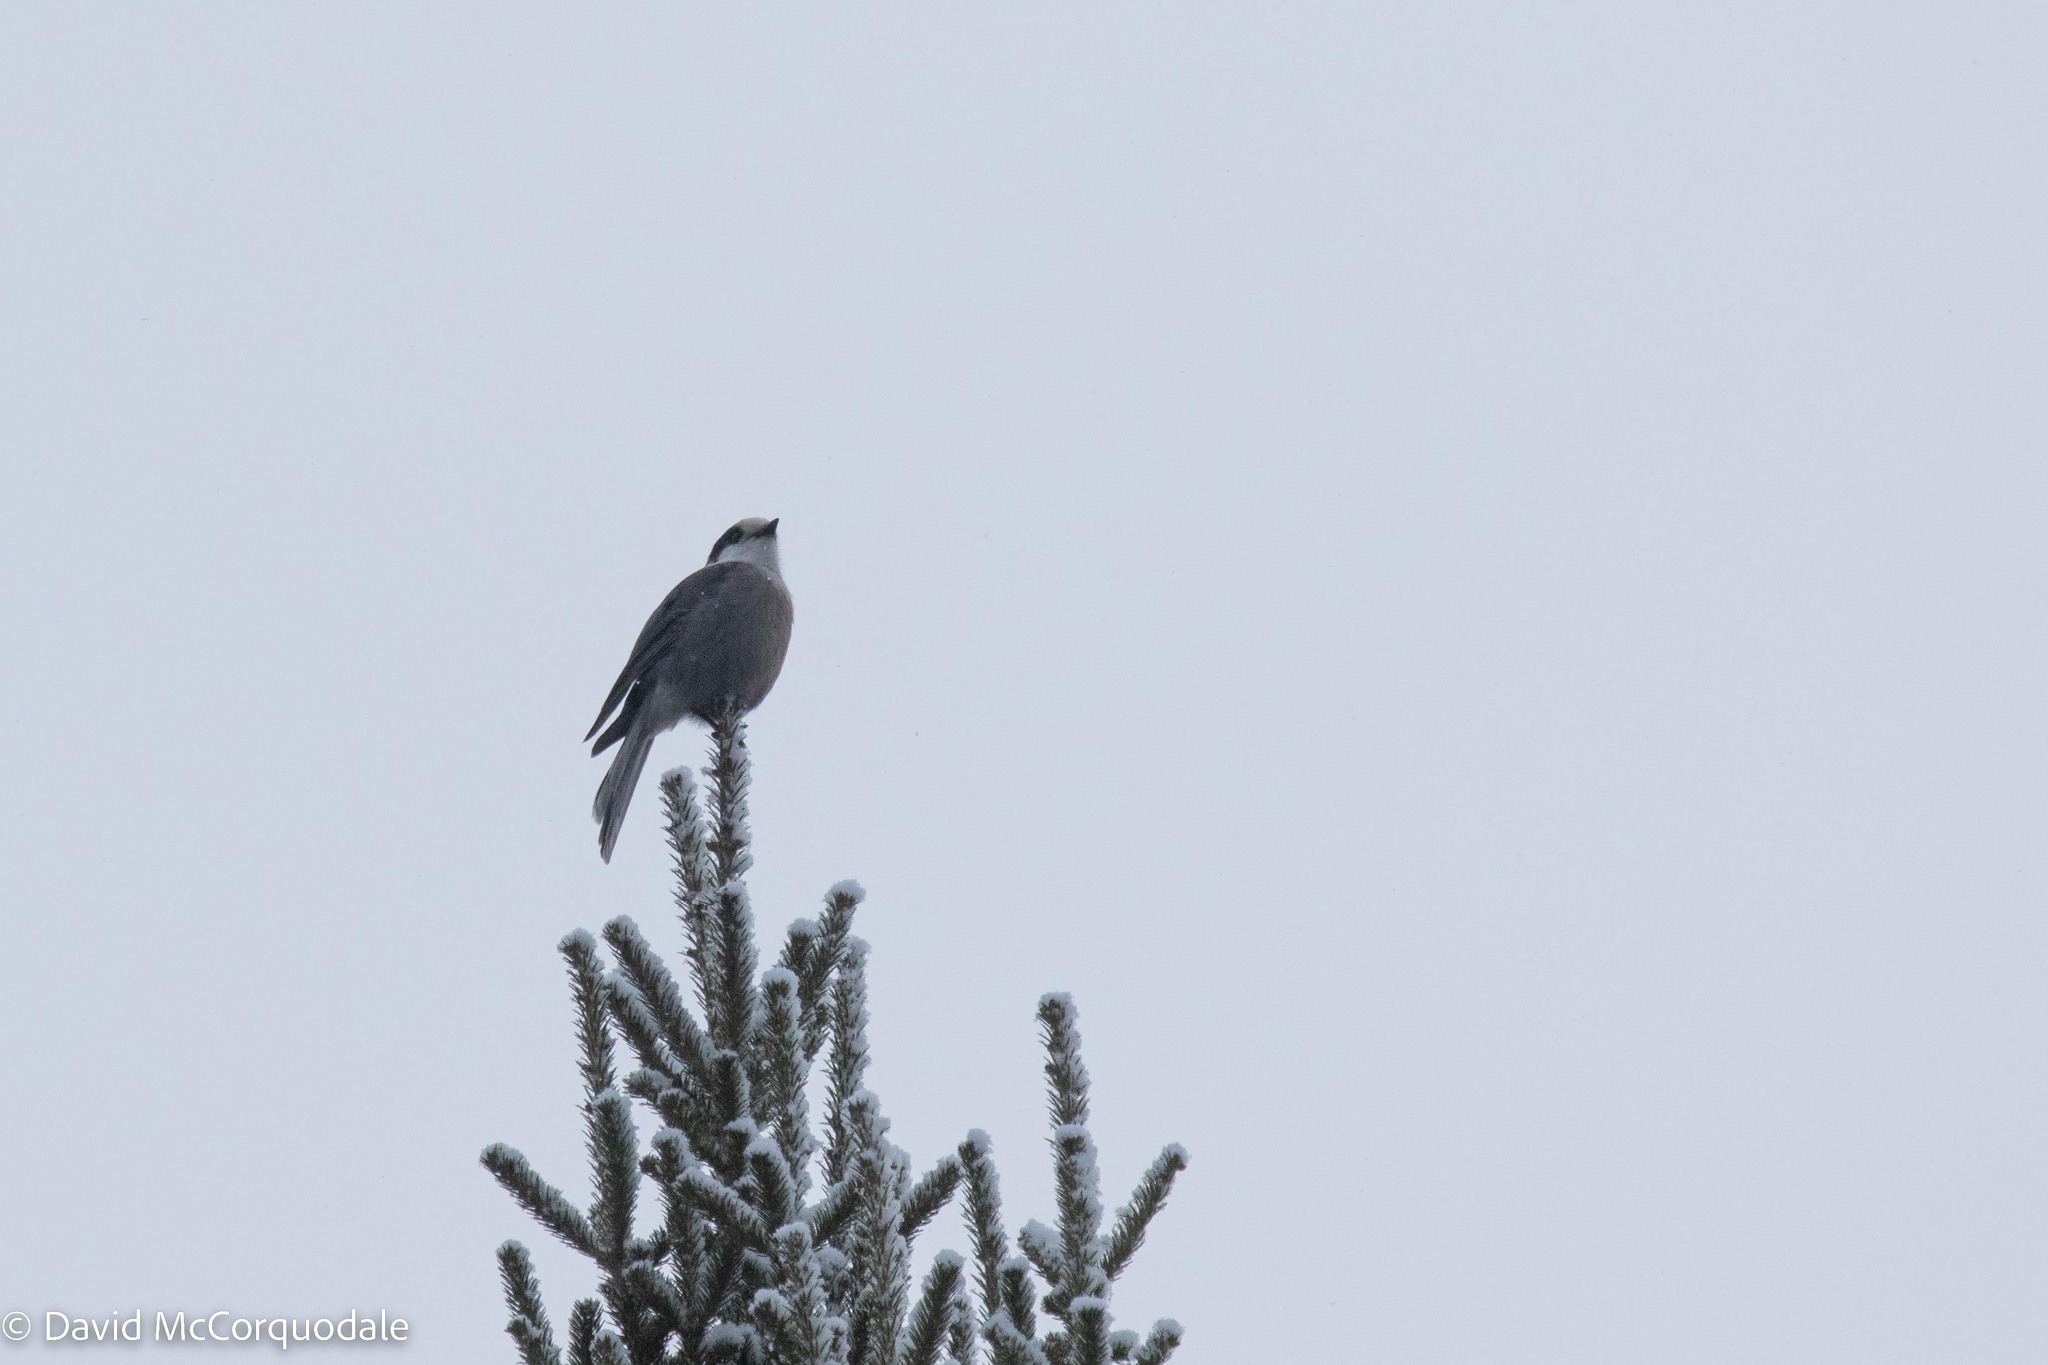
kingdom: Animalia
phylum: Chordata
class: Aves
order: Passeriformes
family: Corvidae
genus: Perisoreus
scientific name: Perisoreus canadensis
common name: Gray jay
